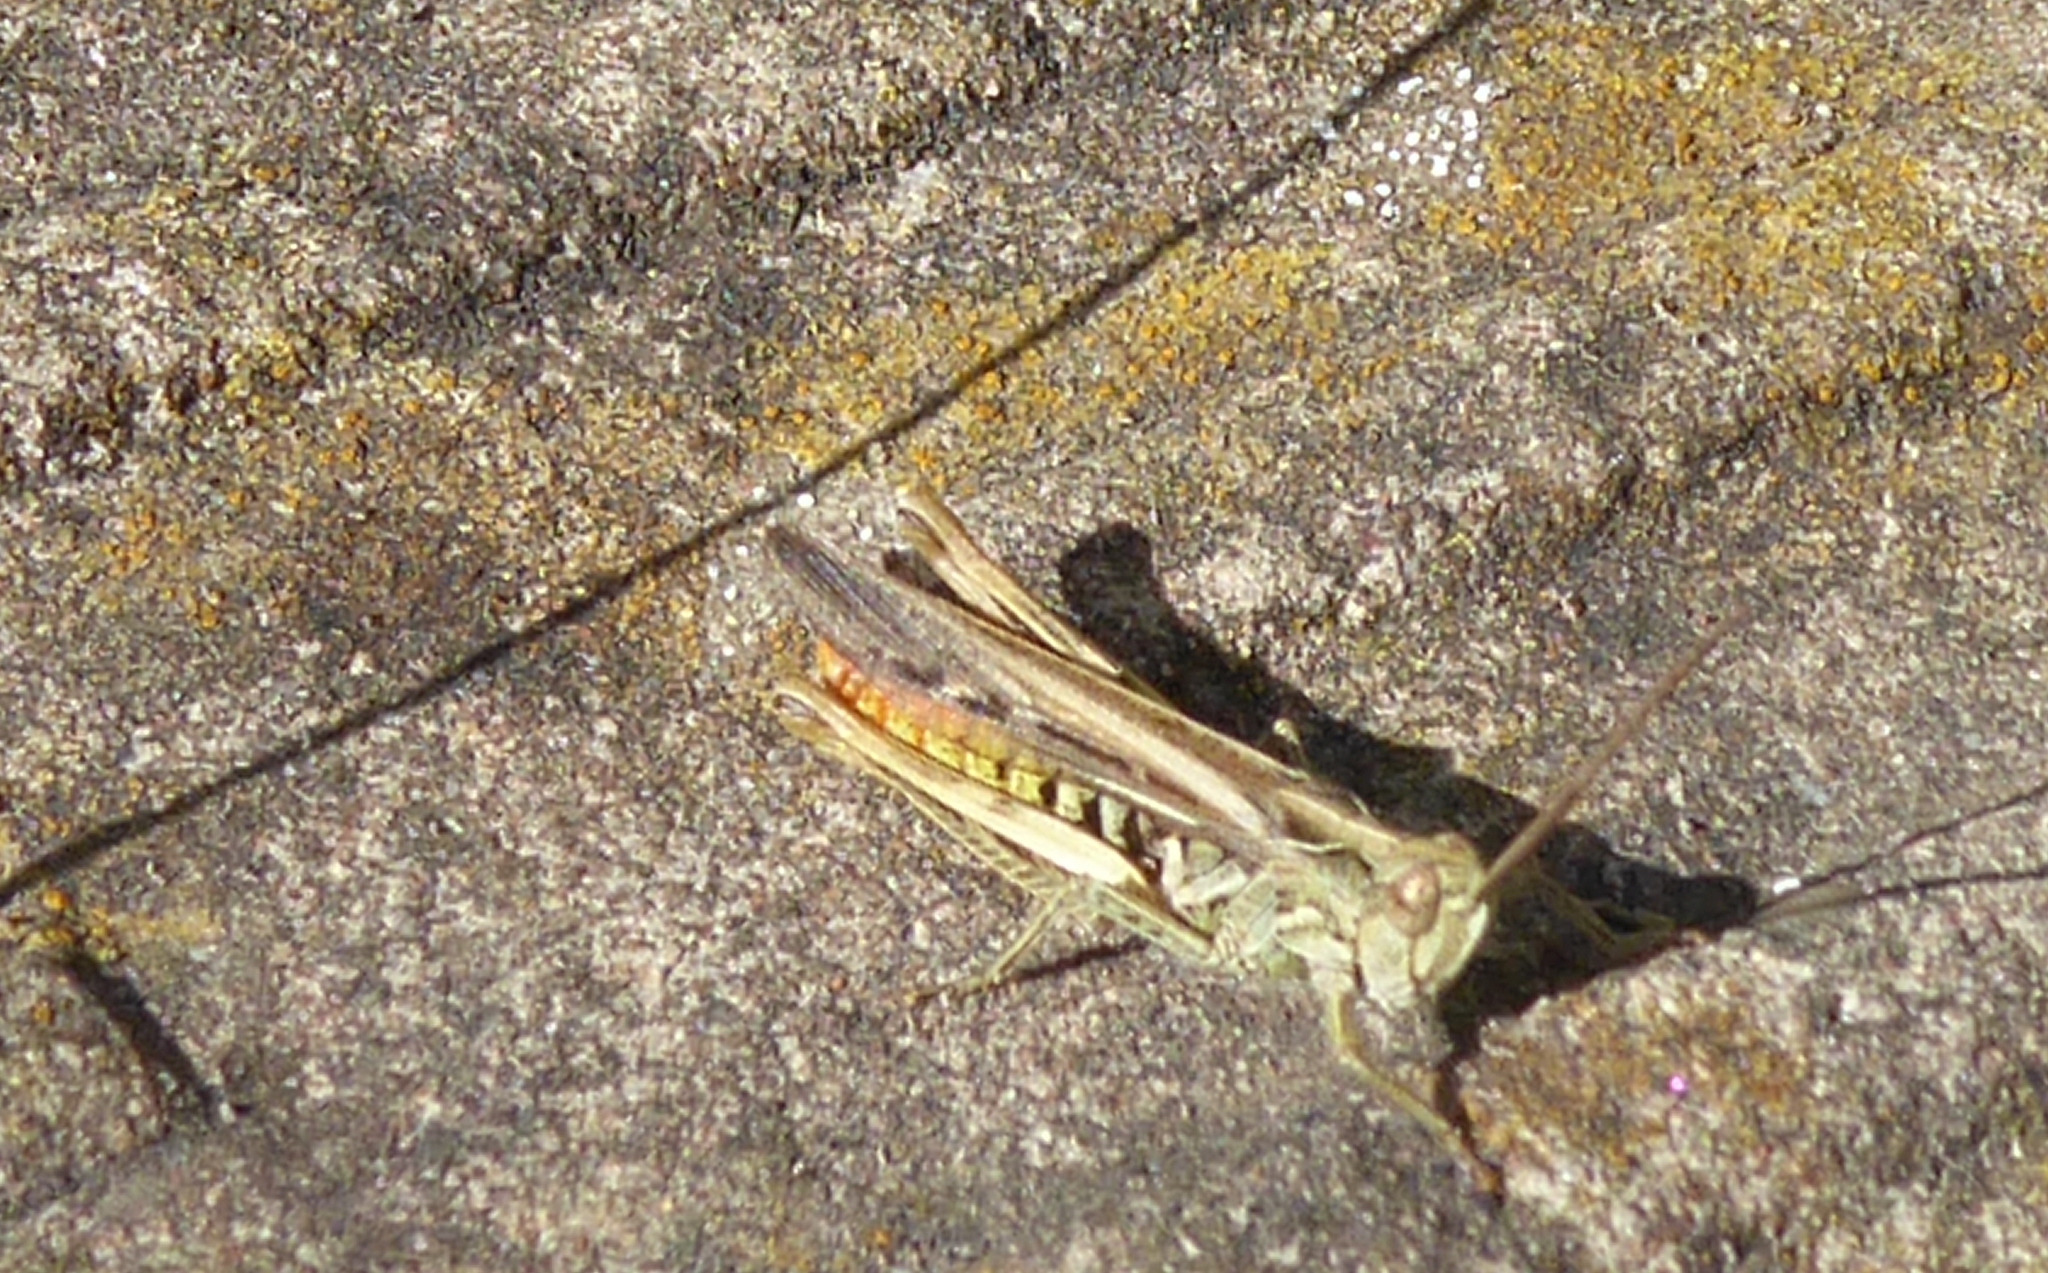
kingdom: Animalia
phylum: Arthropoda
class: Insecta
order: Orthoptera
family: Acrididae
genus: Chorthippus
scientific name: Chorthippus brunneus
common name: Field grasshopper
